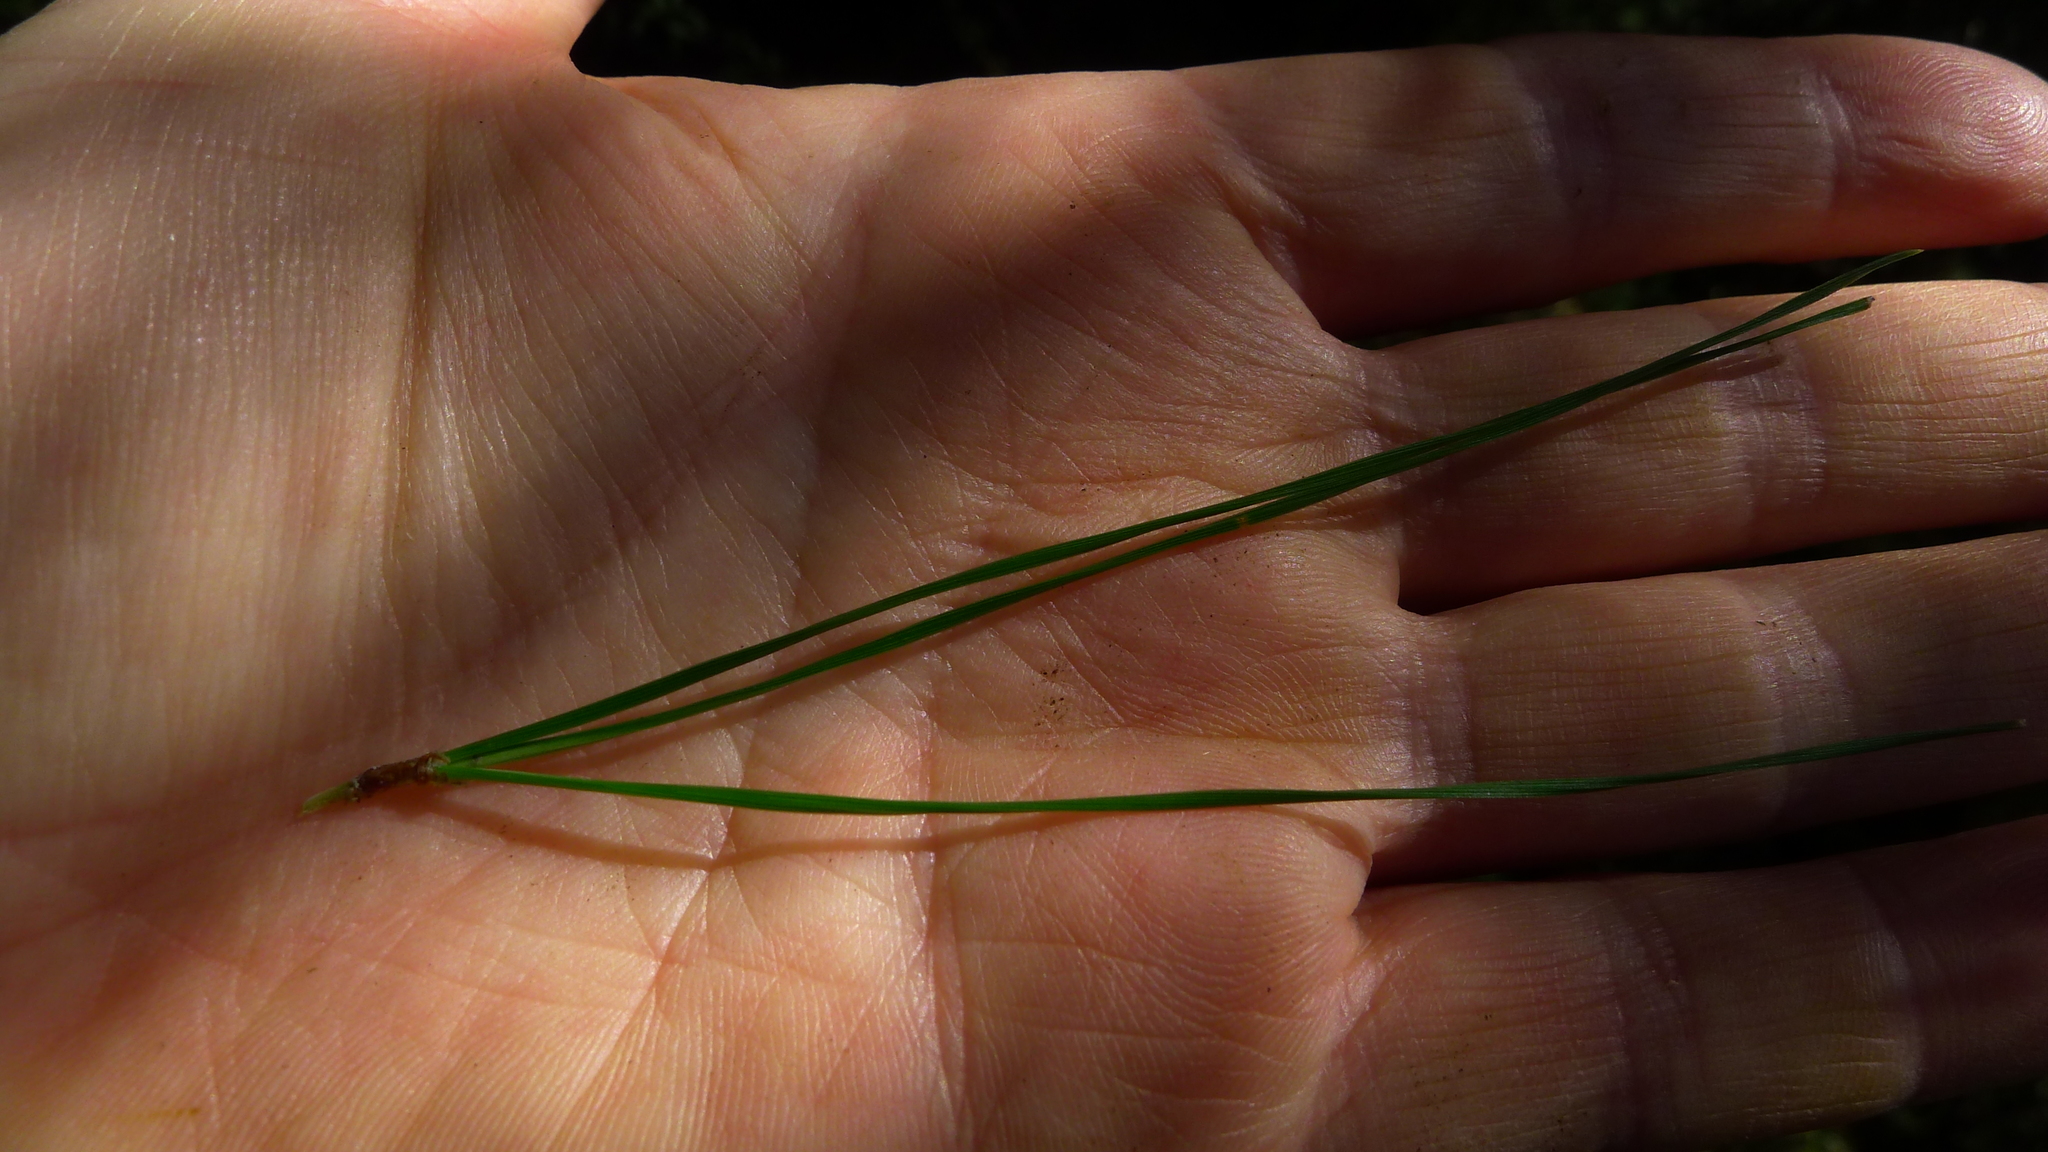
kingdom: Plantae
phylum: Tracheophyta
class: Pinopsida
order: Pinales
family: Pinaceae
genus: Pinus
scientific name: Pinus radiata
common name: Monterey pine
